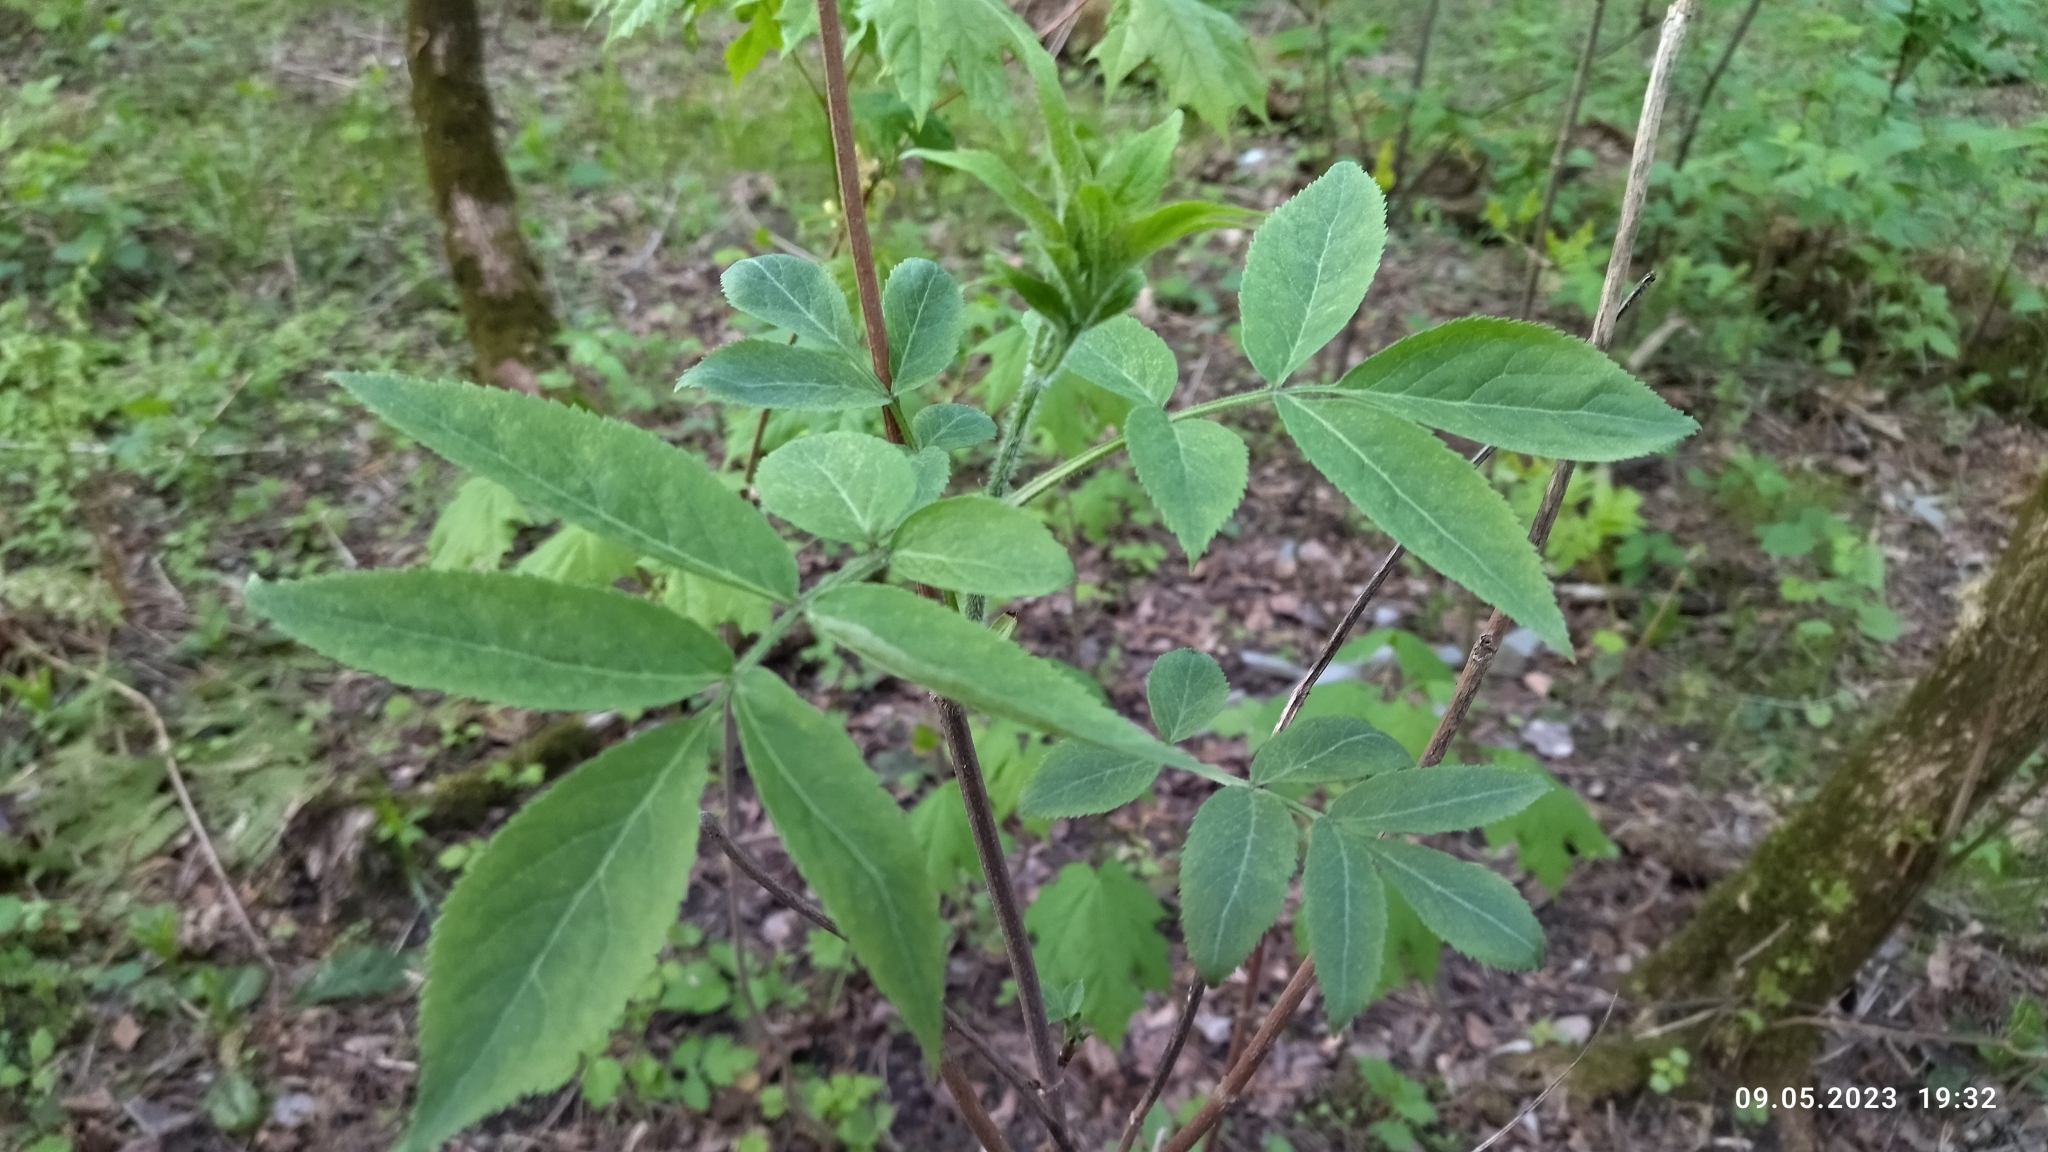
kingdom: Plantae
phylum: Tracheophyta
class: Magnoliopsida
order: Dipsacales
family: Viburnaceae
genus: Sambucus
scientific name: Sambucus racemosa
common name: Red-berried elder
